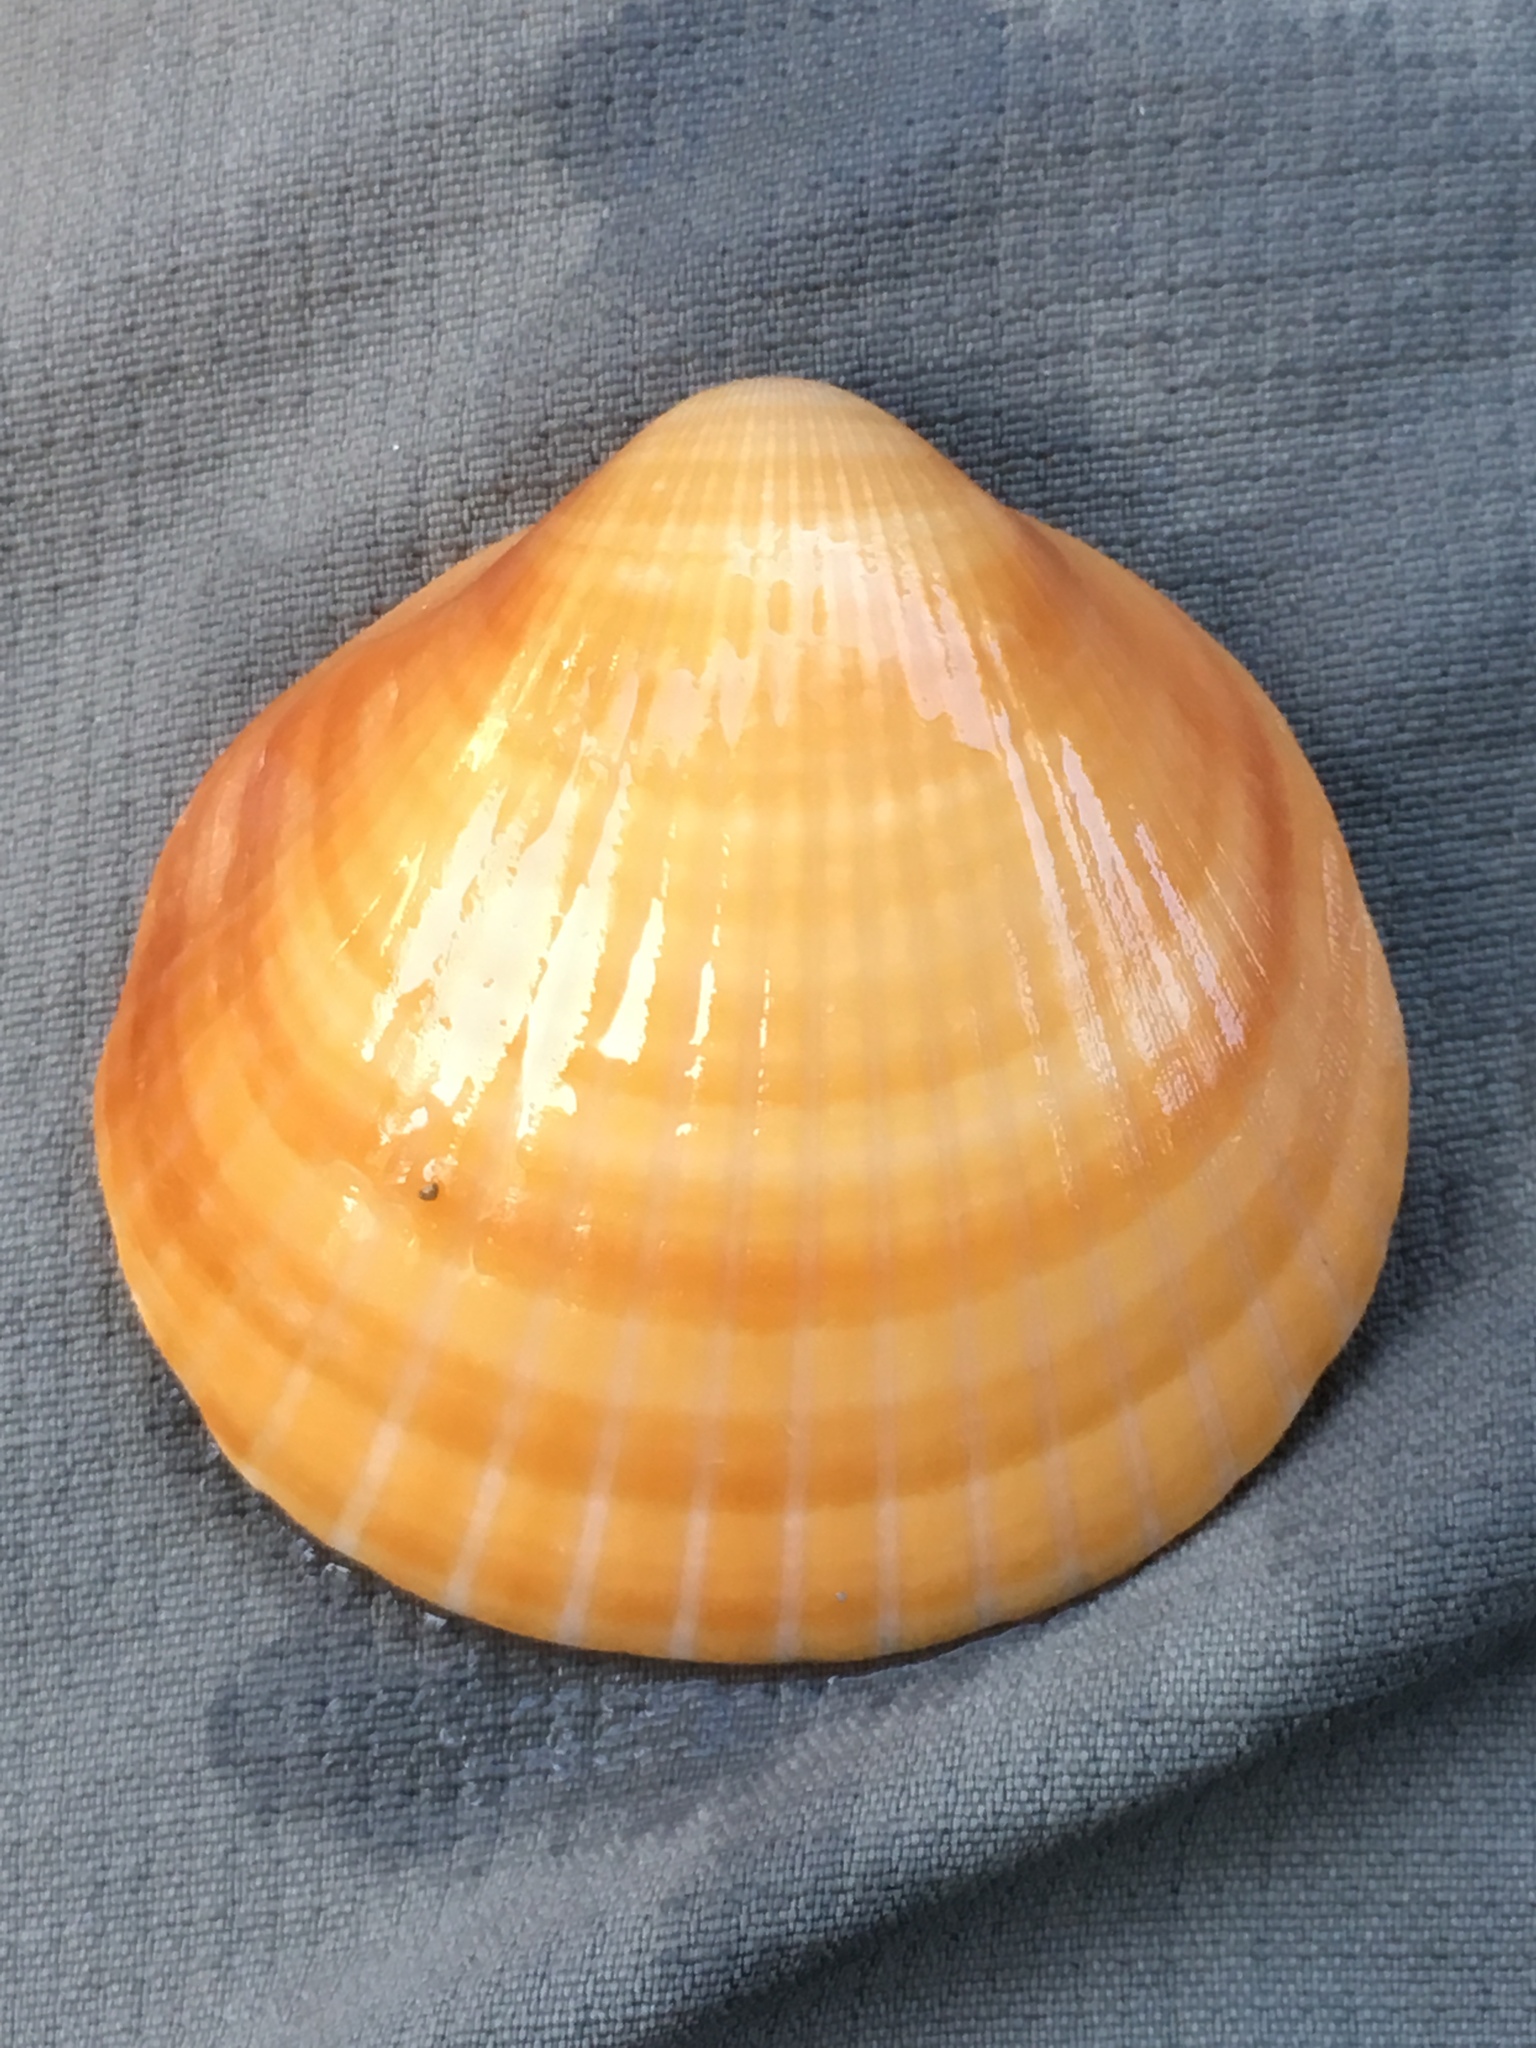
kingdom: Animalia
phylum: Mollusca
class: Bivalvia
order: Arcida
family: Glycymerididae
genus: Glycymeris
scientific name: Glycymeris spectralis
